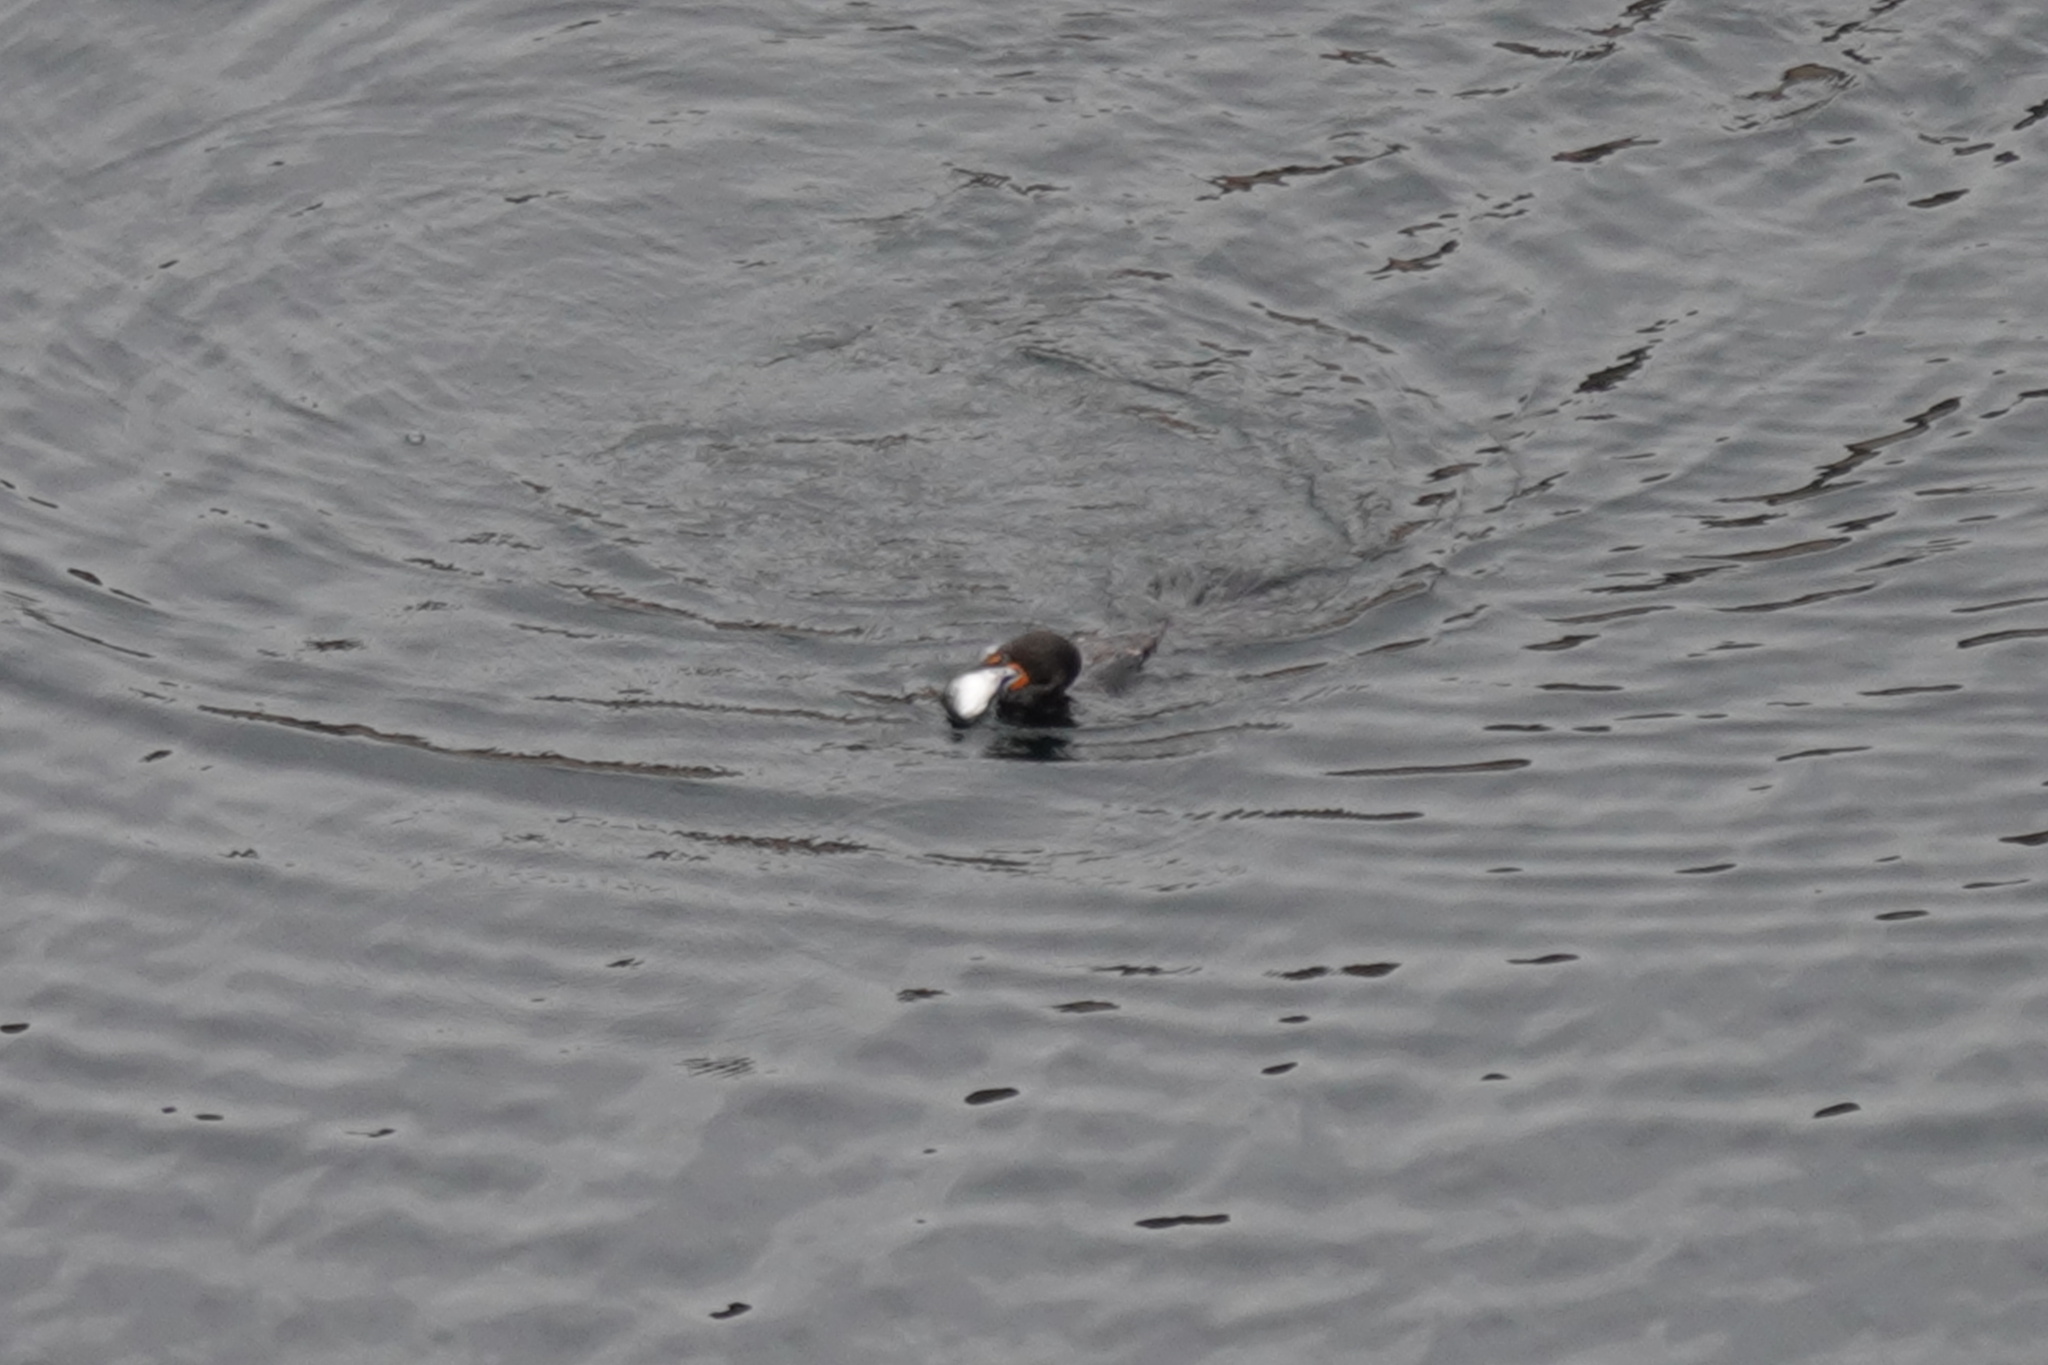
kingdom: Animalia
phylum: Chordata
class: Aves
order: Suliformes
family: Phalacrocoracidae
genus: Phalacrocorax
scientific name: Phalacrocorax auritus
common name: Double-crested cormorant
